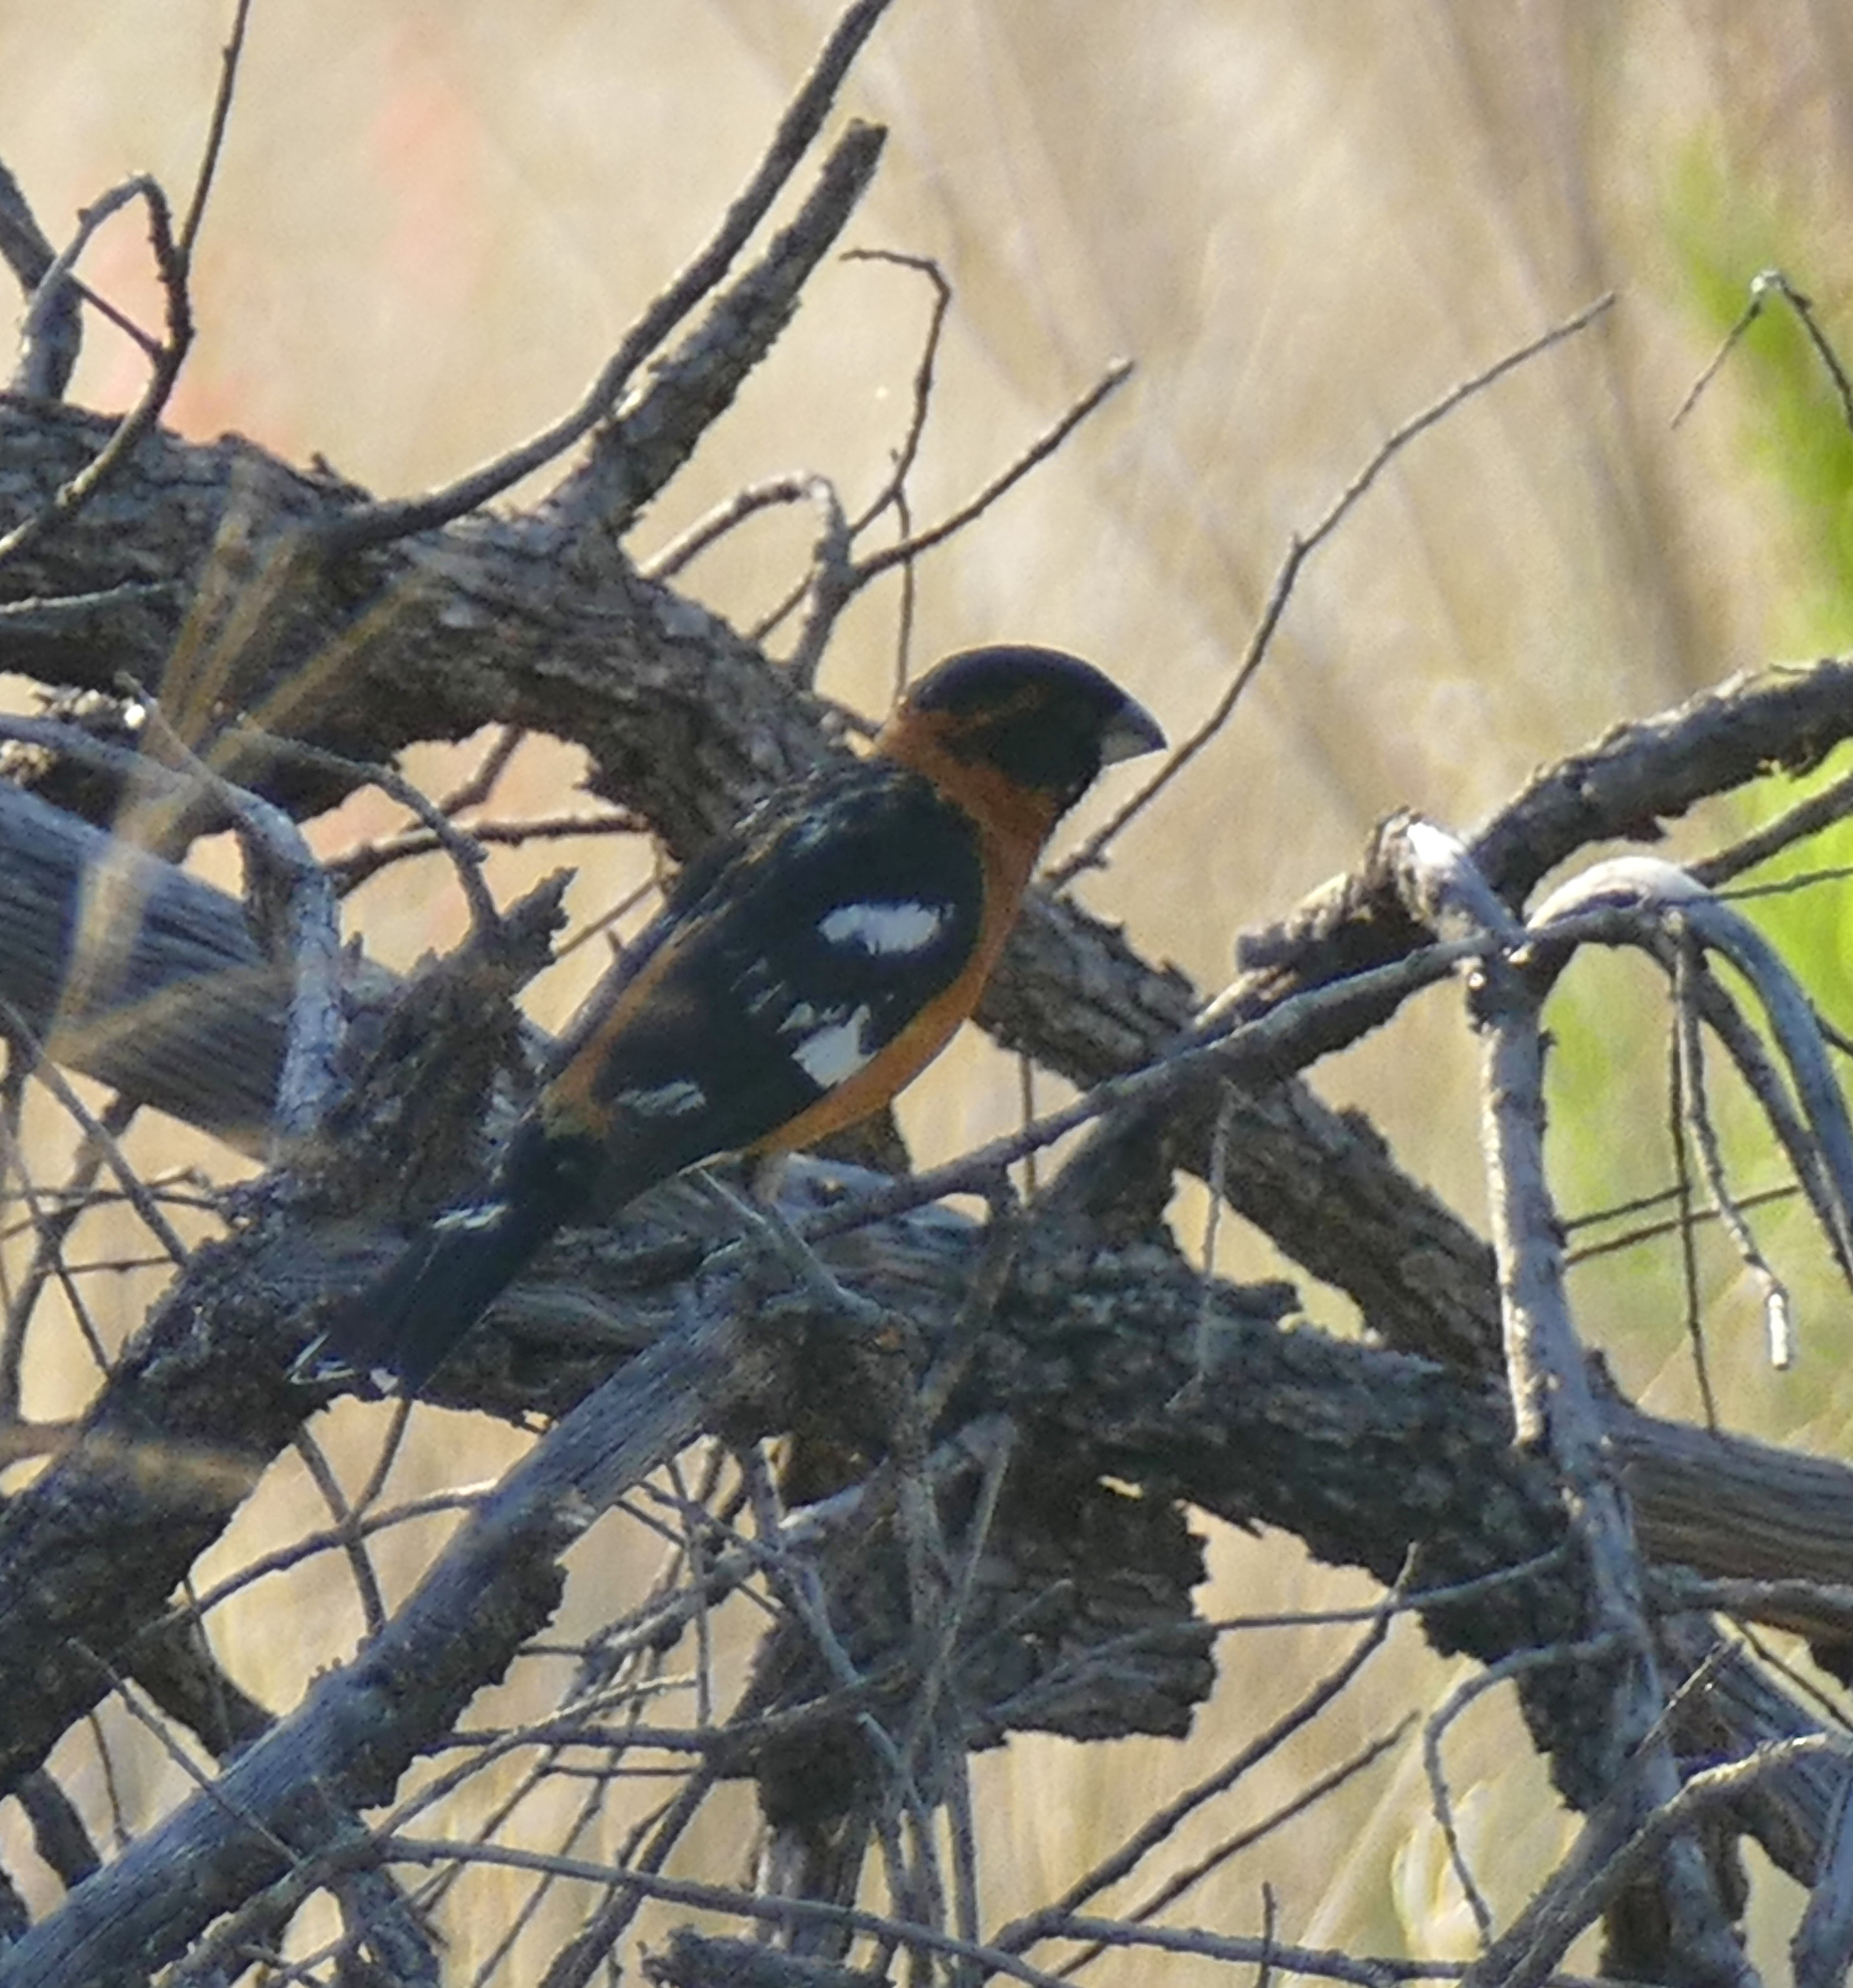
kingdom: Animalia
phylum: Chordata
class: Aves
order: Passeriformes
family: Cardinalidae
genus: Pheucticus
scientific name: Pheucticus melanocephalus
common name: Black-headed grosbeak
